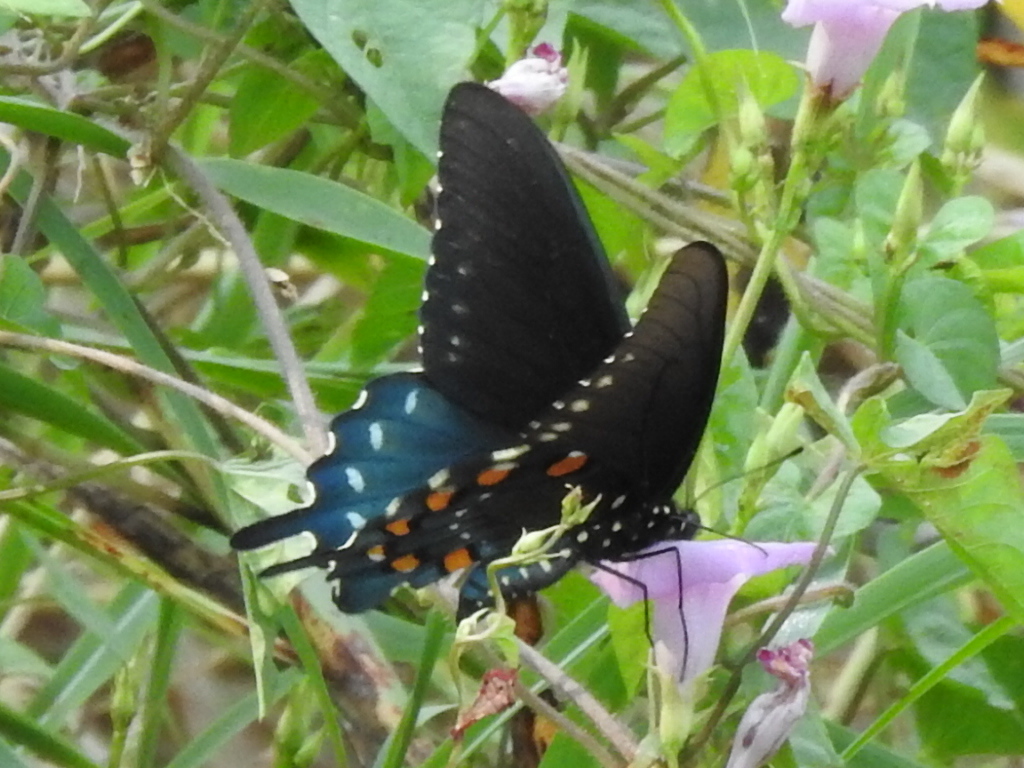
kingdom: Animalia
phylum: Arthropoda
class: Insecta
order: Lepidoptera
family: Papilionidae
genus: Battus
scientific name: Battus philenor
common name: Pipevine swallowtail
